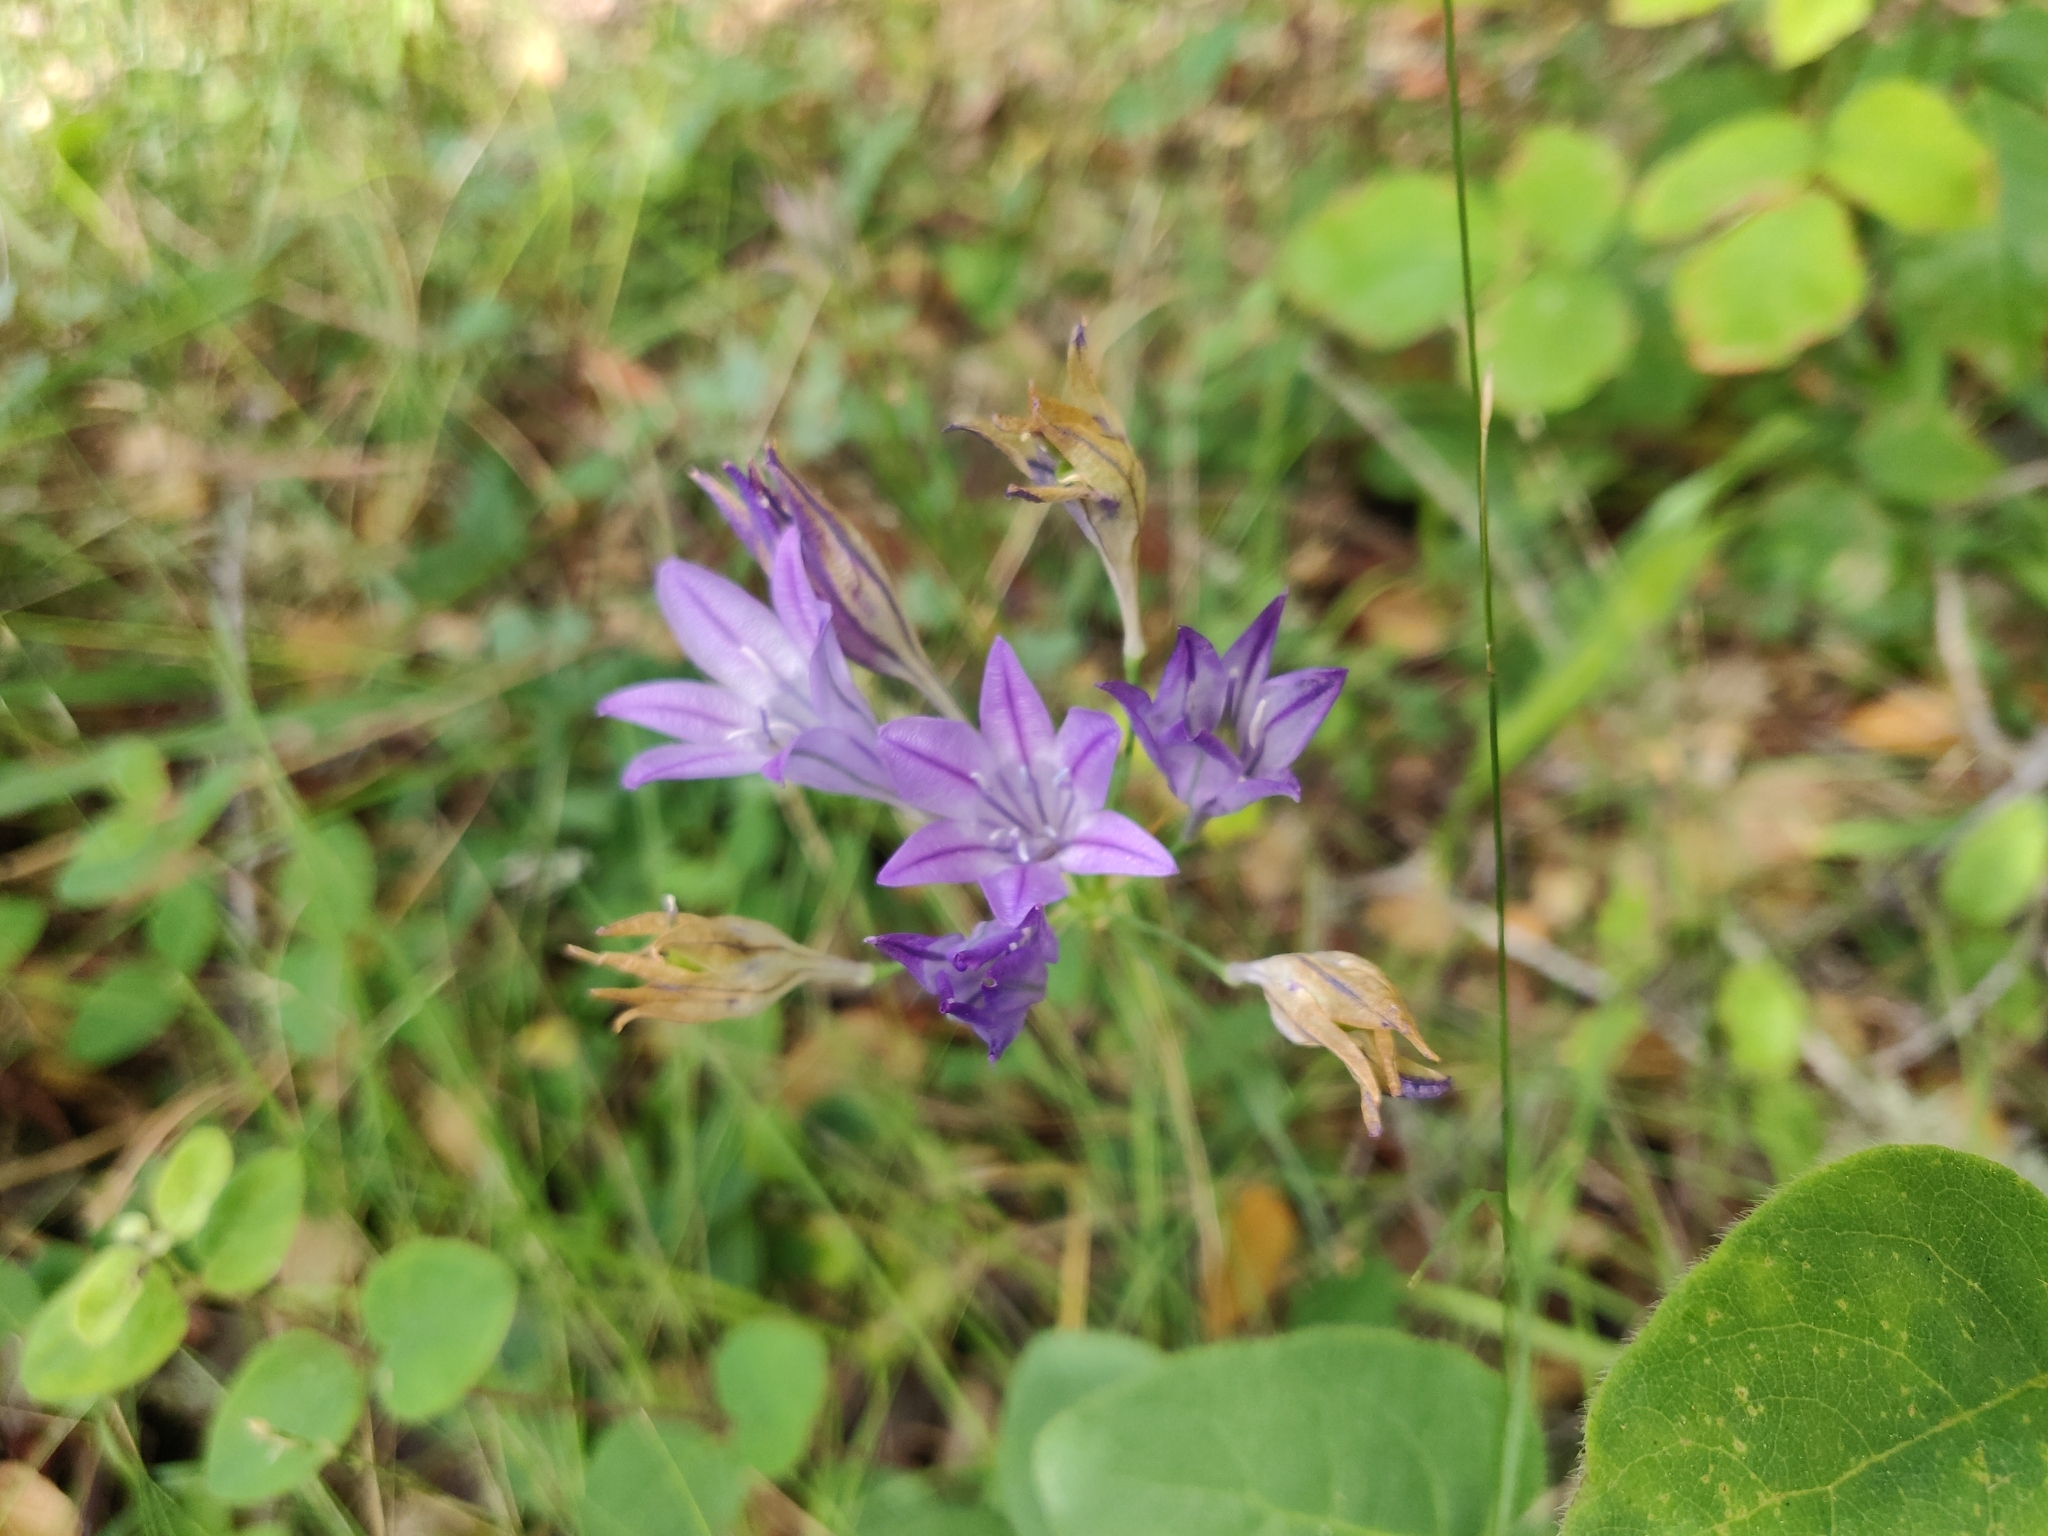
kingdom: Plantae
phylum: Tracheophyta
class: Liliopsida
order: Asparagales
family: Asparagaceae
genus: Triteleia
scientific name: Triteleia laxa
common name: Triplet-lily
